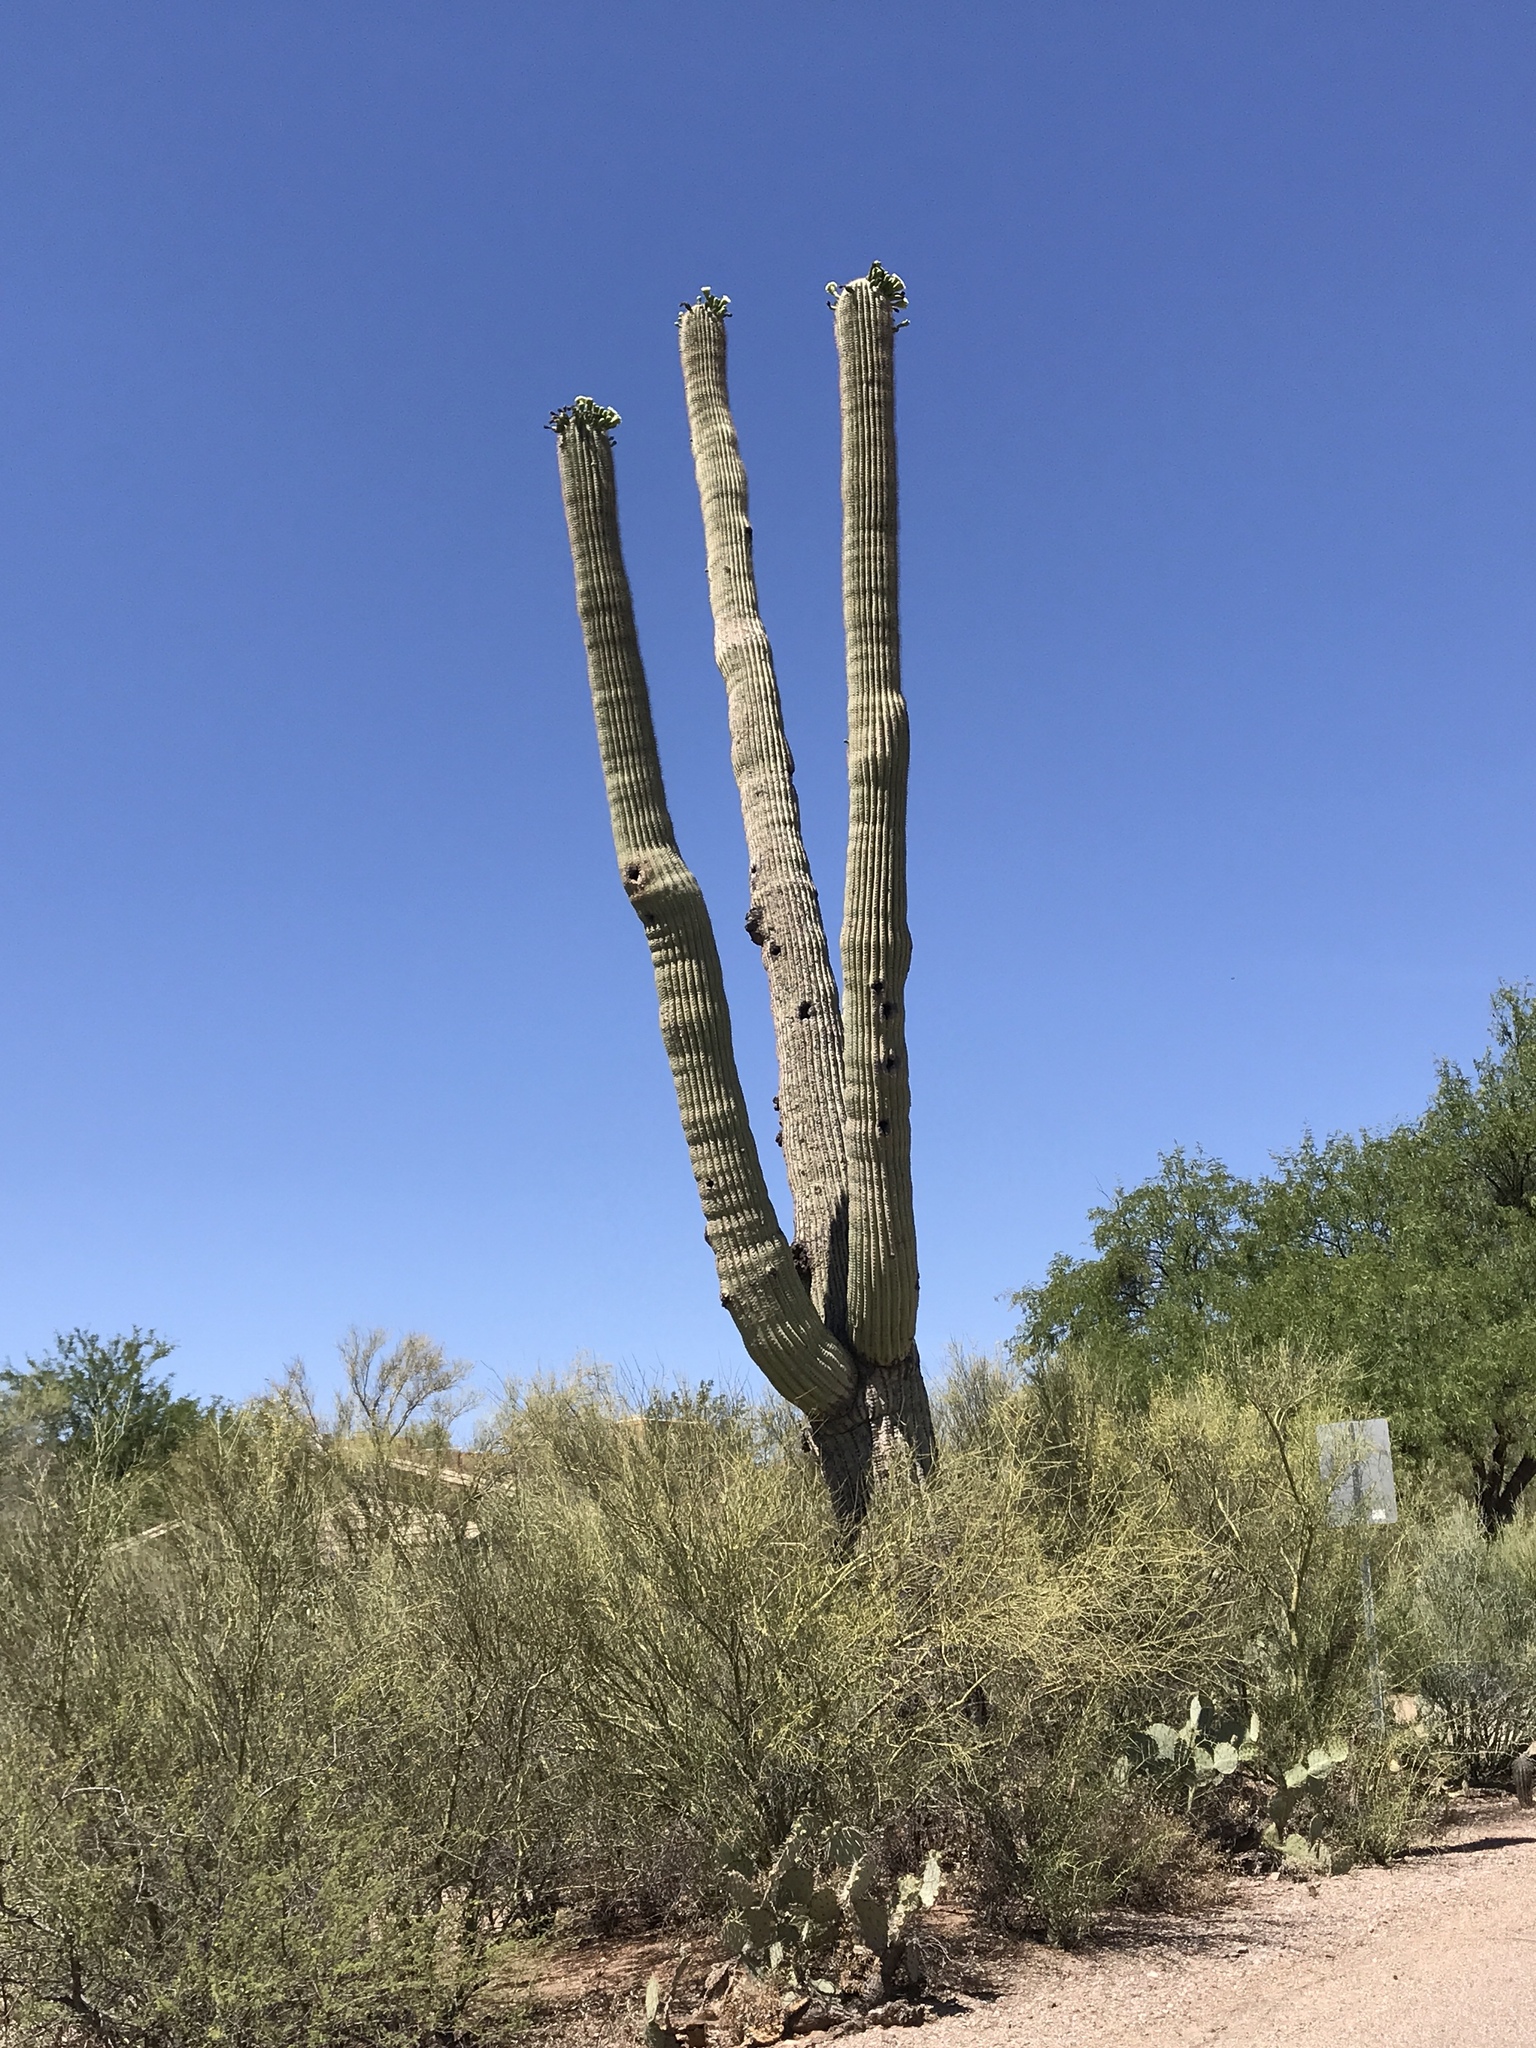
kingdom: Plantae
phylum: Tracheophyta
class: Magnoliopsida
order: Caryophyllales
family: Cactaceae
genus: Carnegiea
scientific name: Carnegiea gigantea
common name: Saguaro
